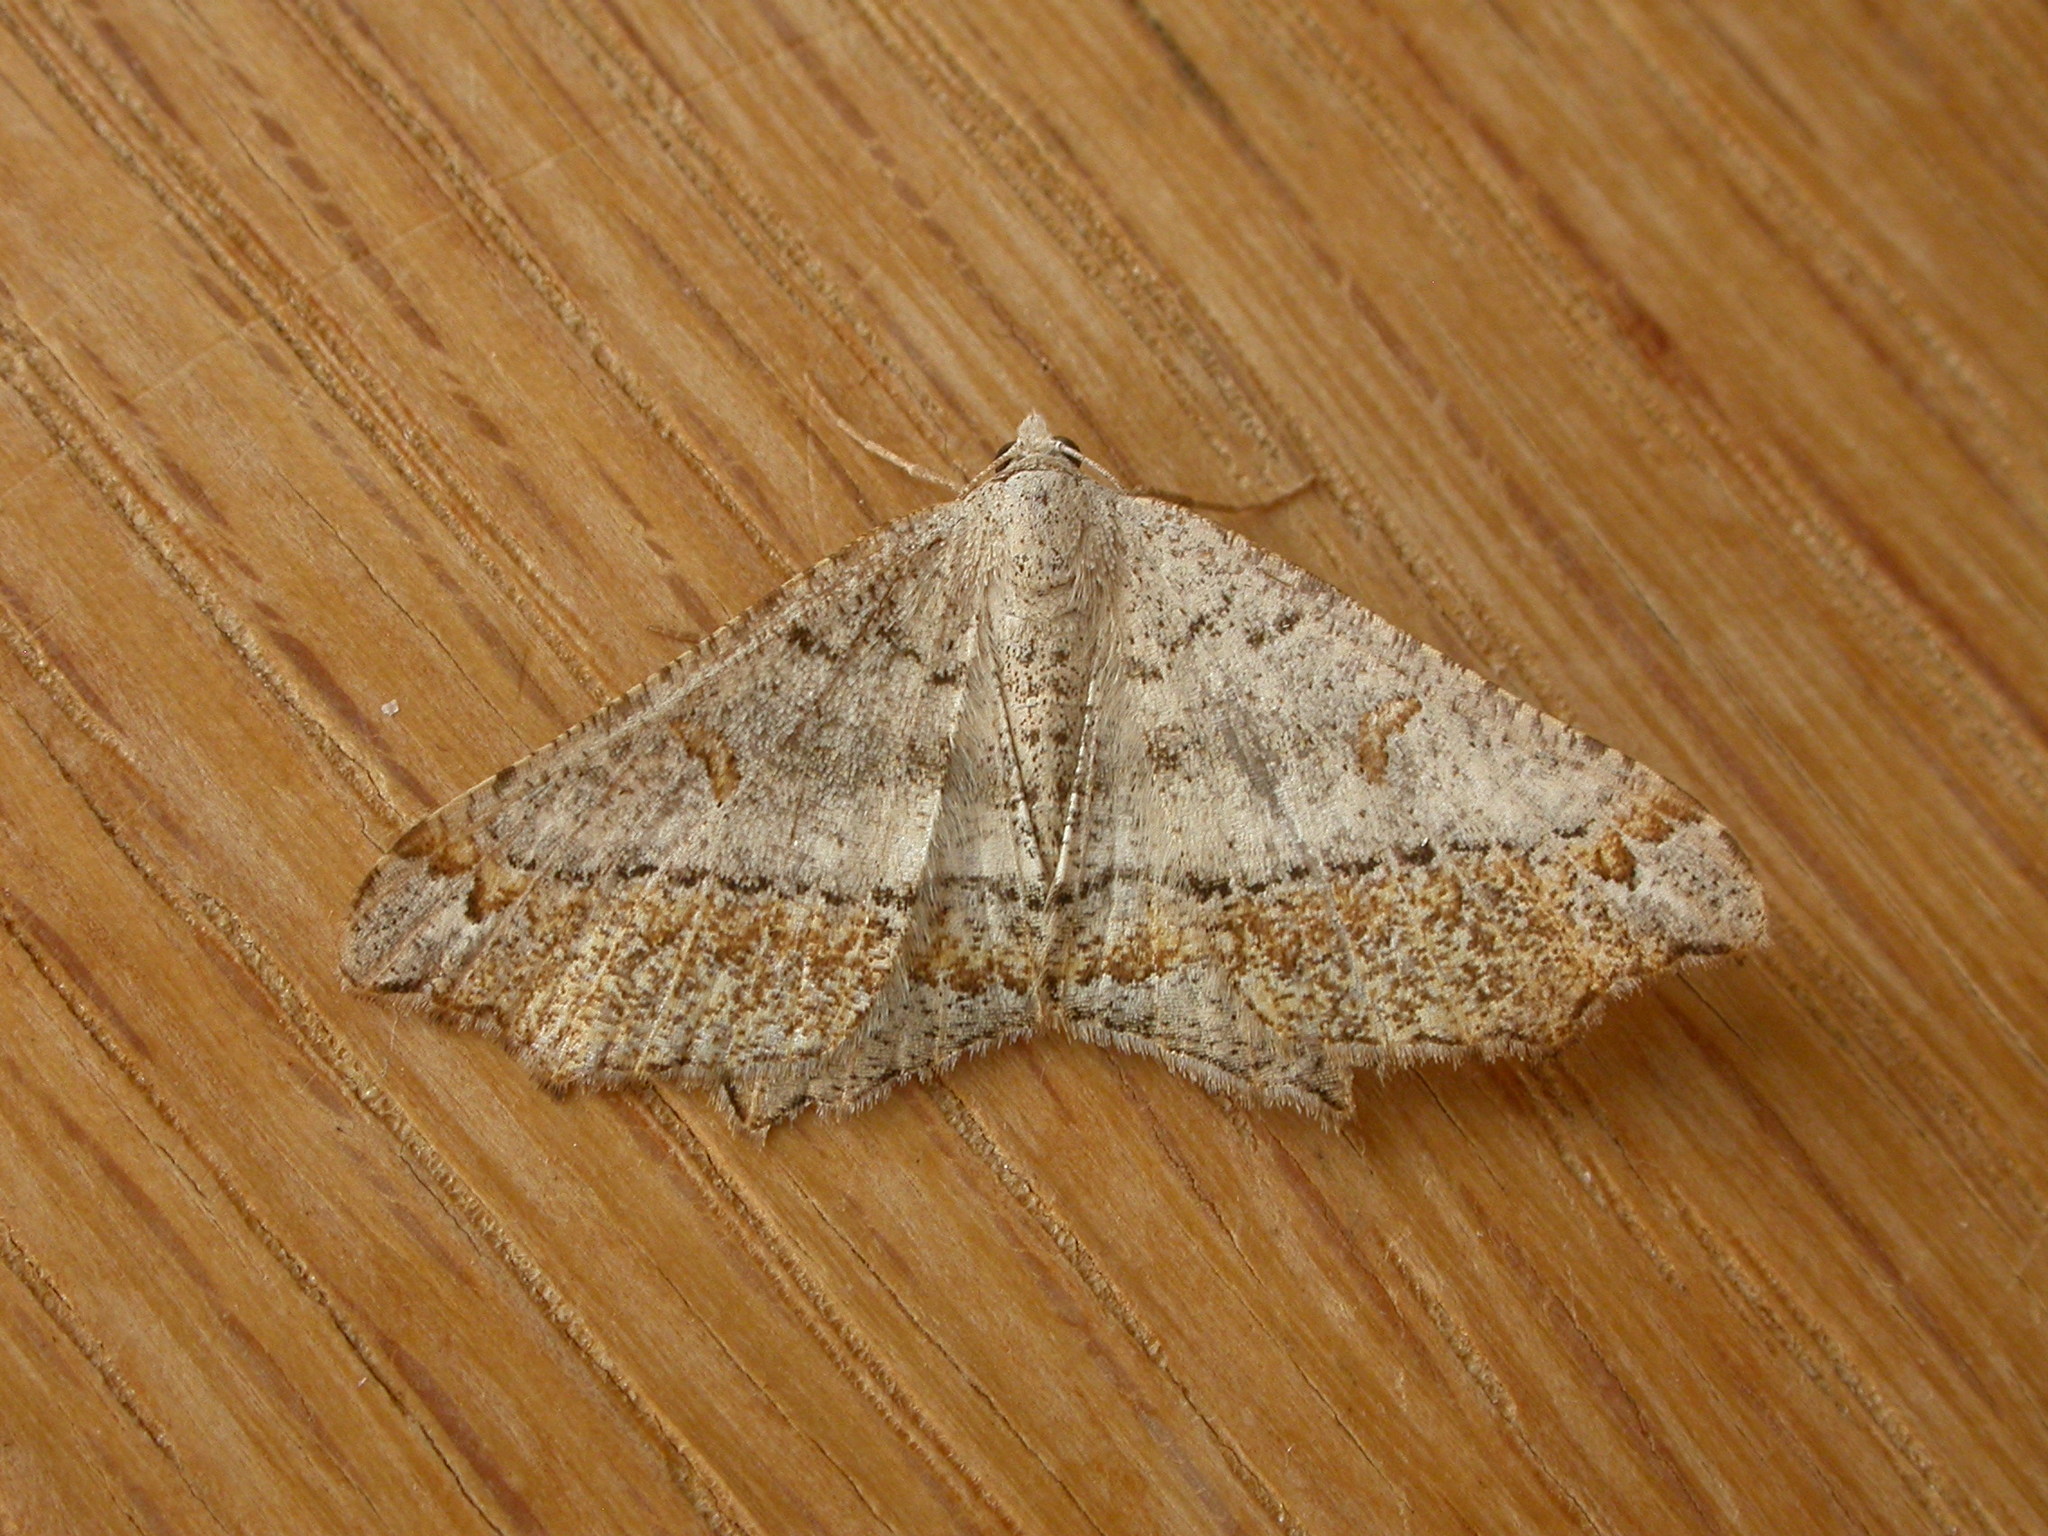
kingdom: Animalia
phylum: Arthropoda
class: Insecta
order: Lepidoptera
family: Geometridae
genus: Dissomorphia
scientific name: Dissomorphia australiaria
